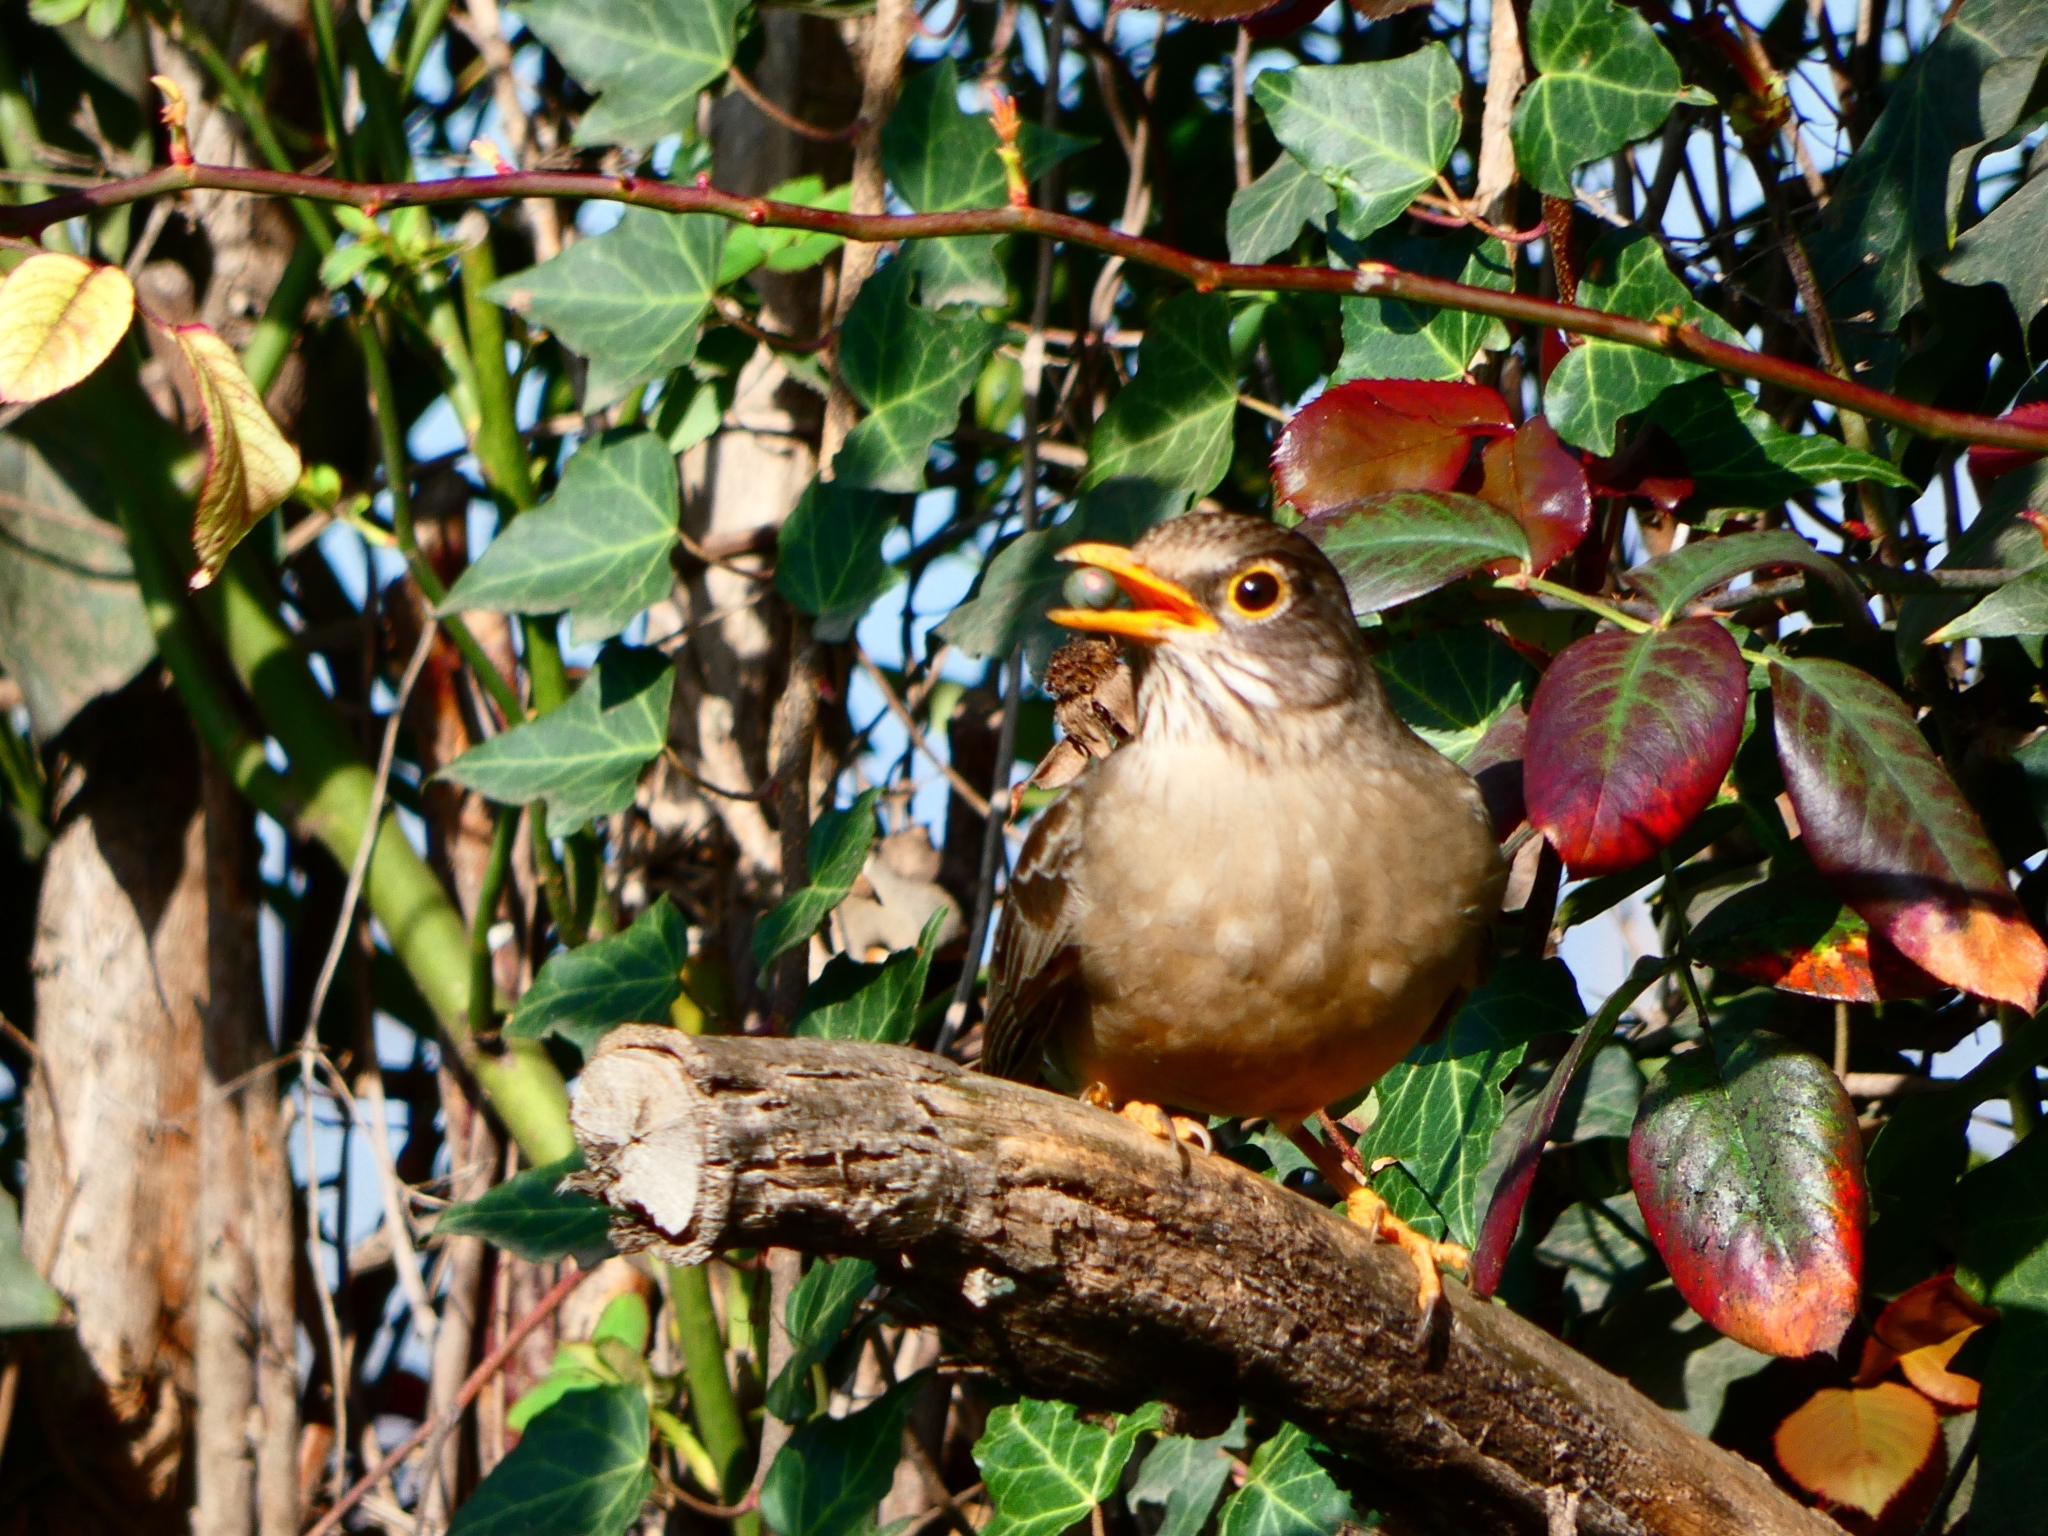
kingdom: Animalia
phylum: Chordata
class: Aves
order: Passeriformes
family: Turdidae
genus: Turdus
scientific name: Turdus falcklandii
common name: Austral thrush
